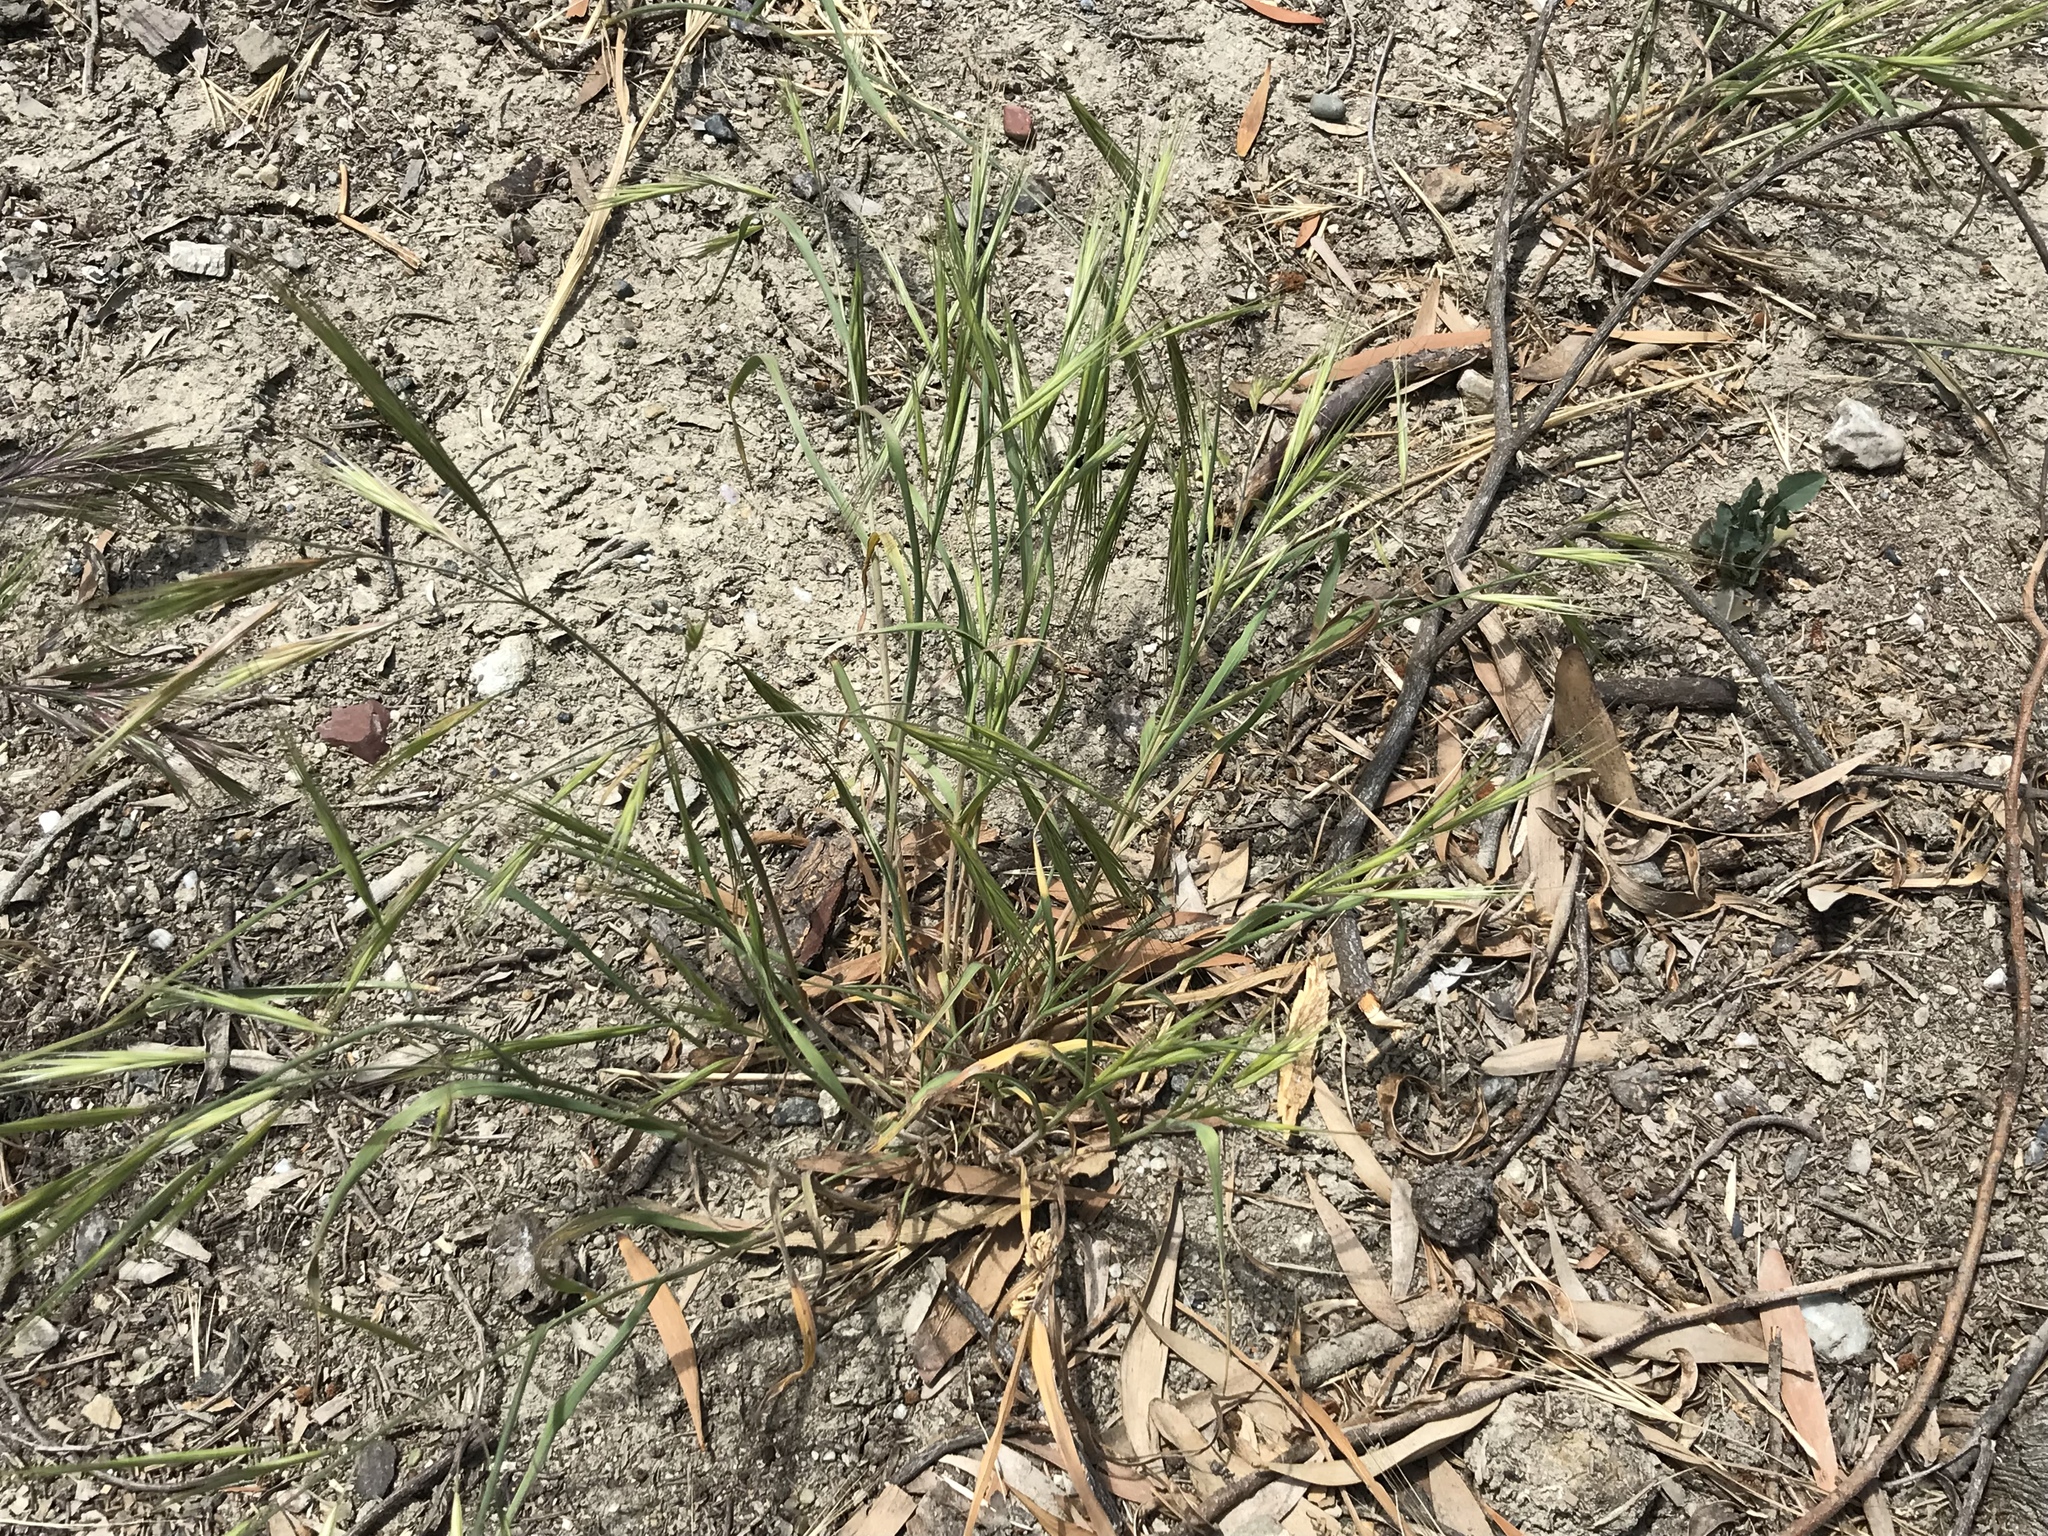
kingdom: Plantae
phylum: Tracheophyta
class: Liliopsida
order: Poales
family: Poaceae
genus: Bromus
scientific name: Bromus diandrus
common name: Ripgut brome
